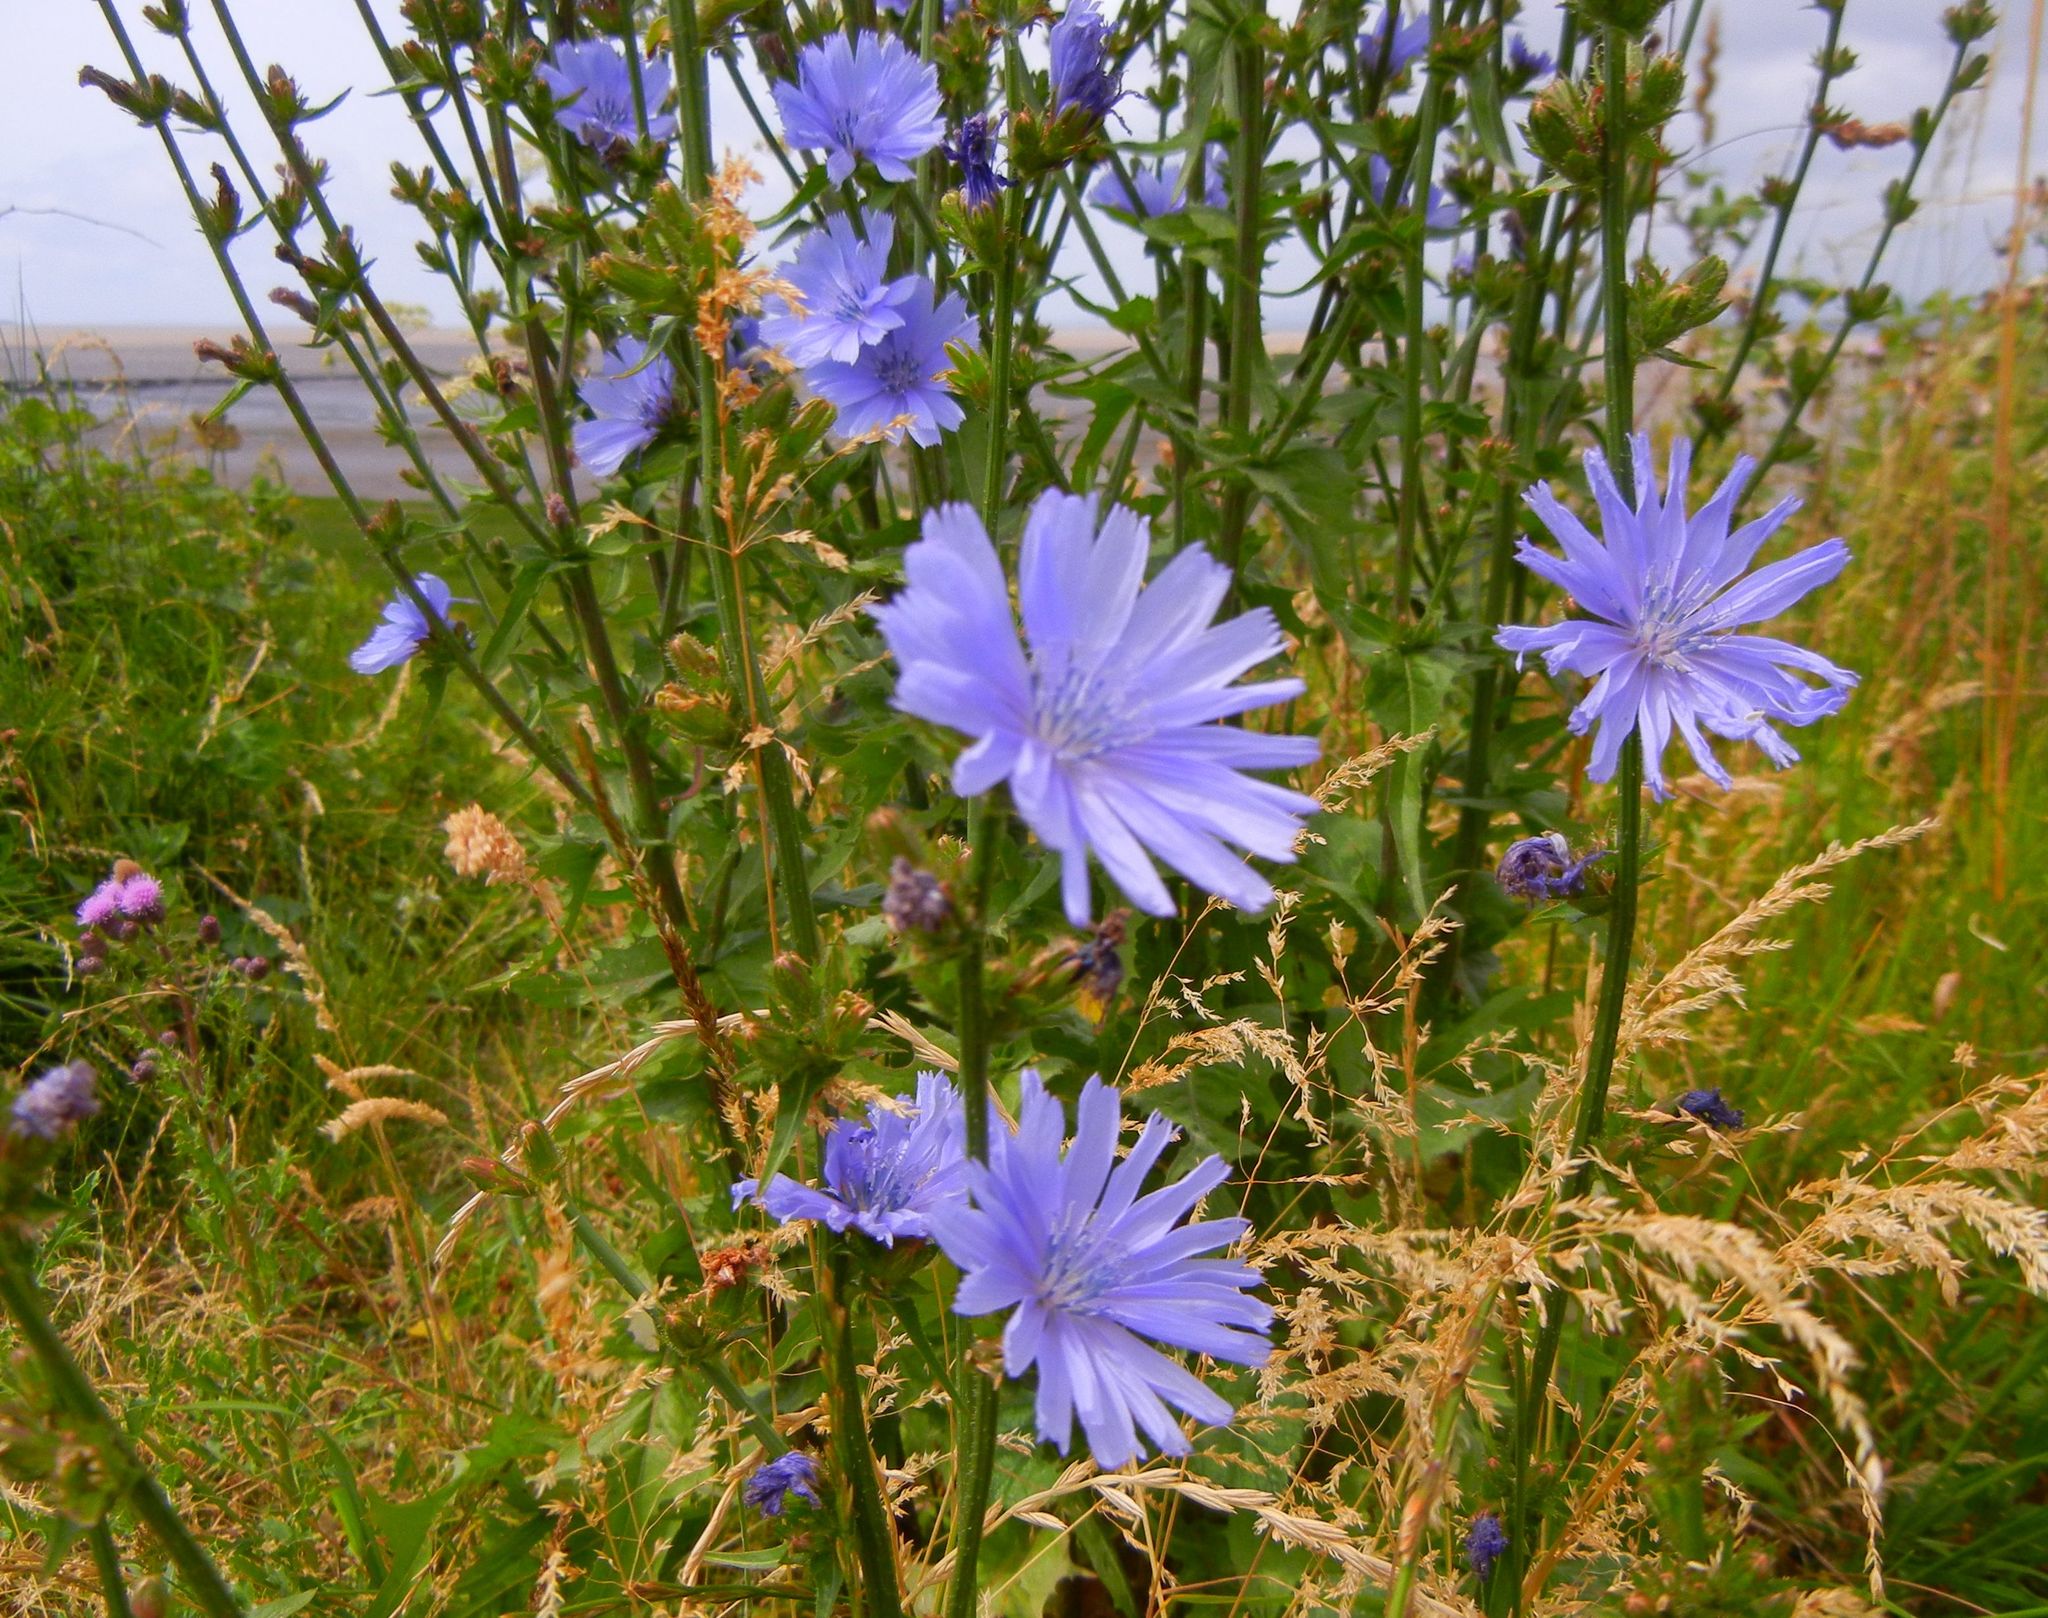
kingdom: Plantae
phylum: Tracheophyta
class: Magnoliopsida
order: Asterales
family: Asteraceae
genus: Cichorium
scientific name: Cichorium intybus
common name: Chicory
